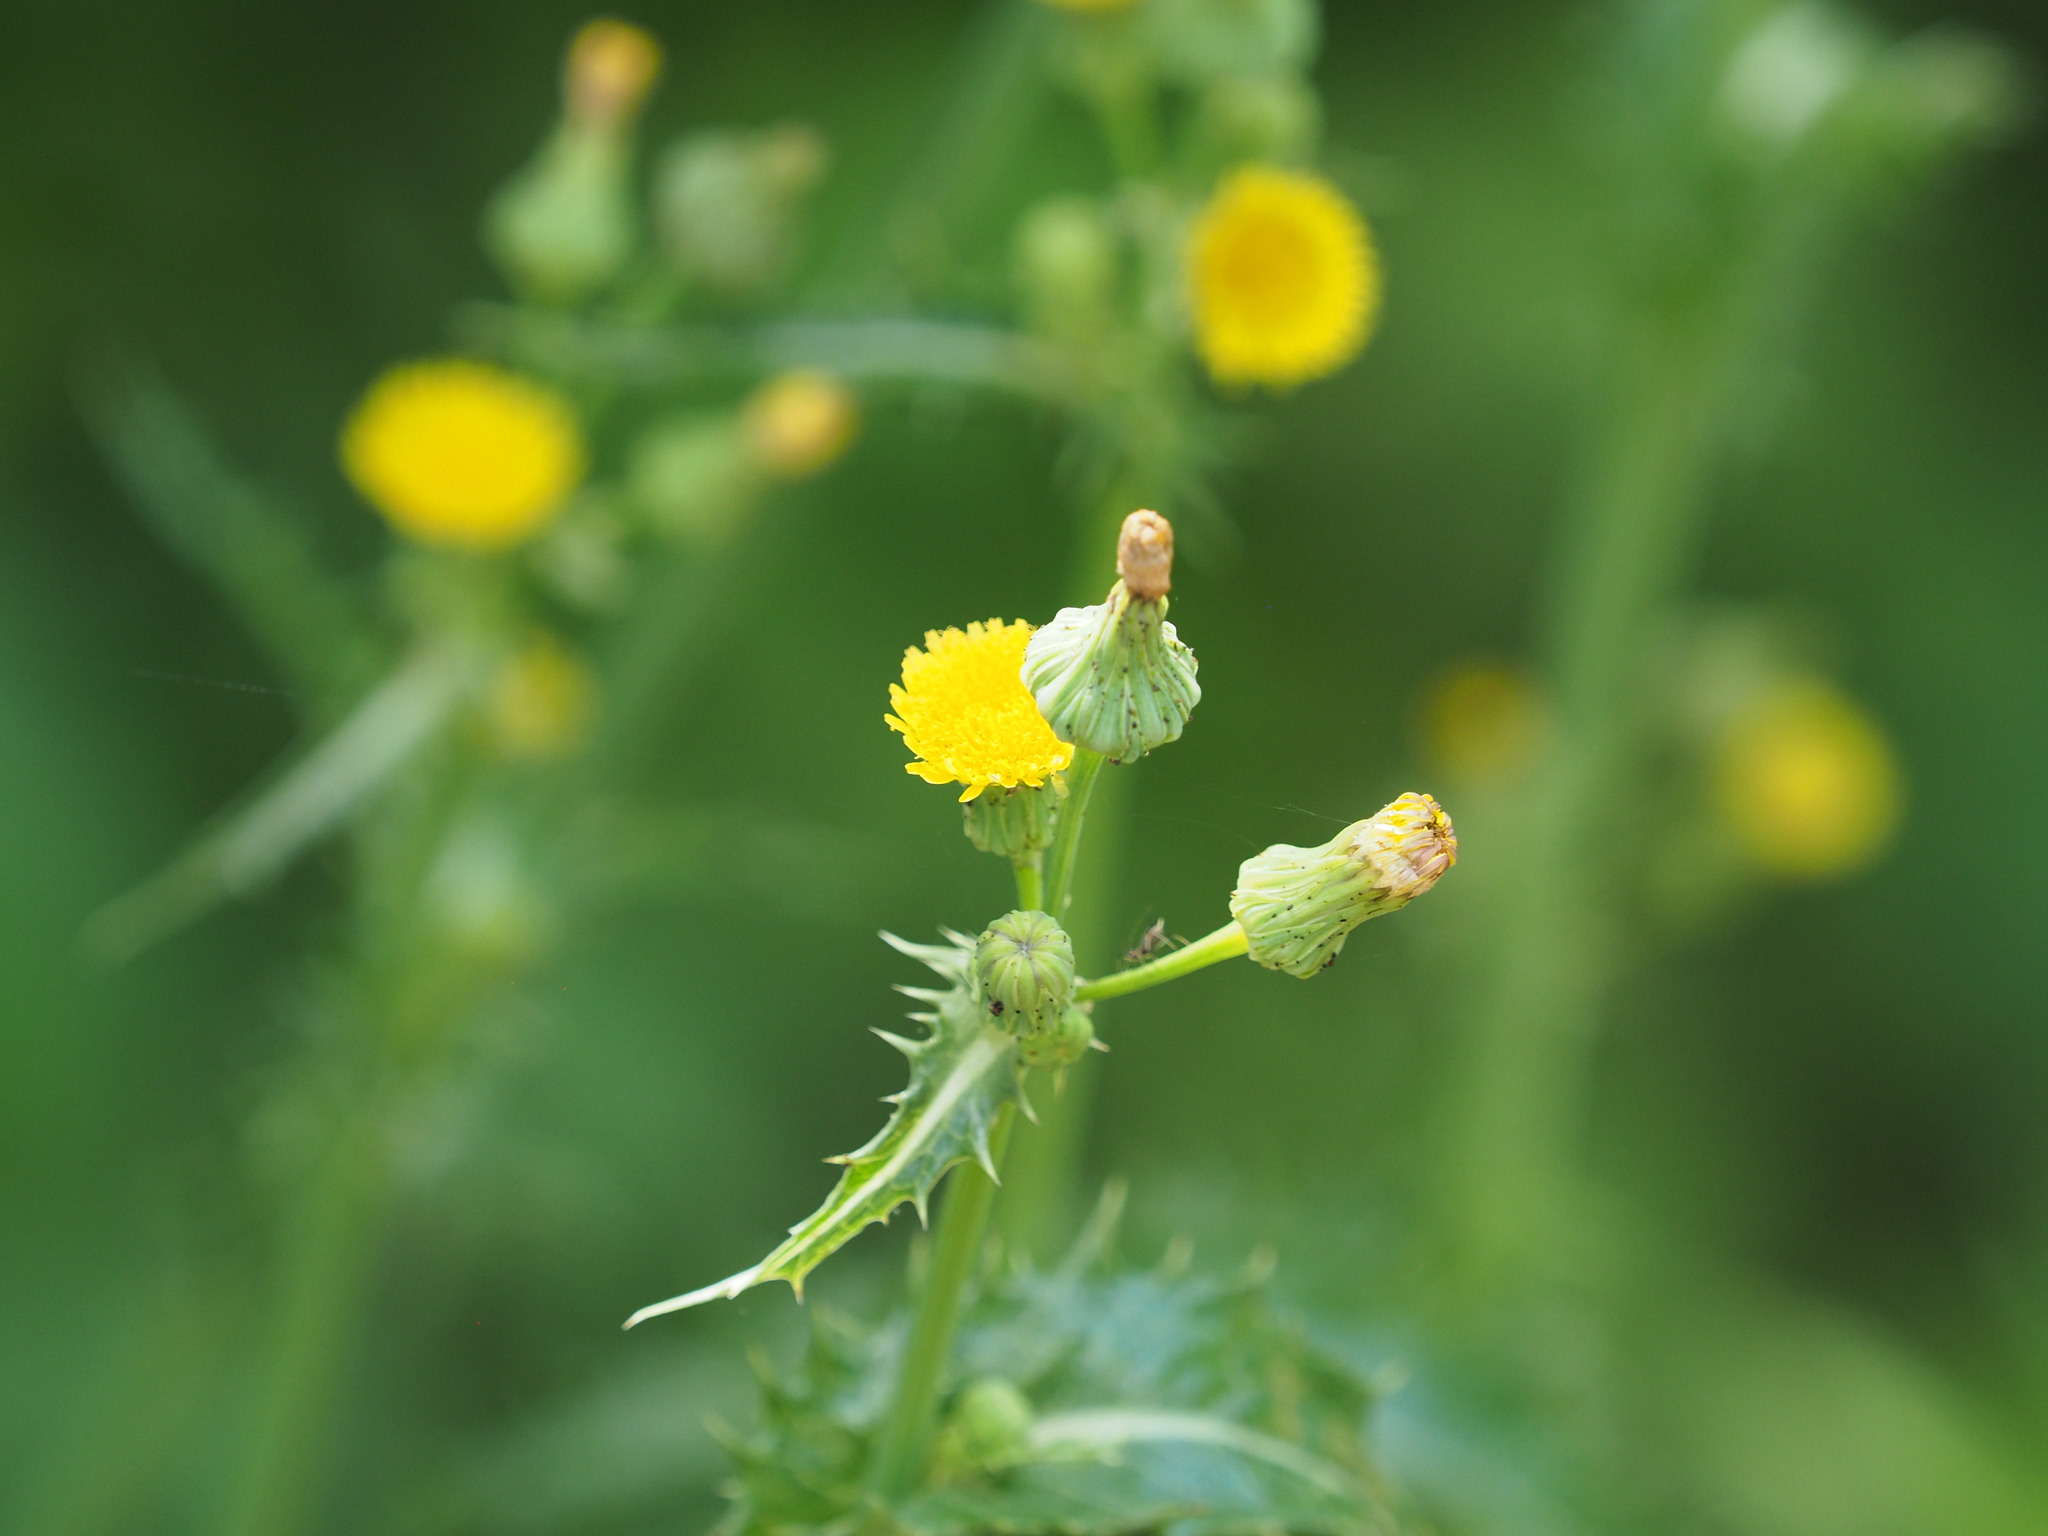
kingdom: Plantae
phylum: Tracheophyta
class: Magnoliopsida
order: Asterales
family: Asteraceae
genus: Sonchus
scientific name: Sonchus asper
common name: Prickly sow-thistle
